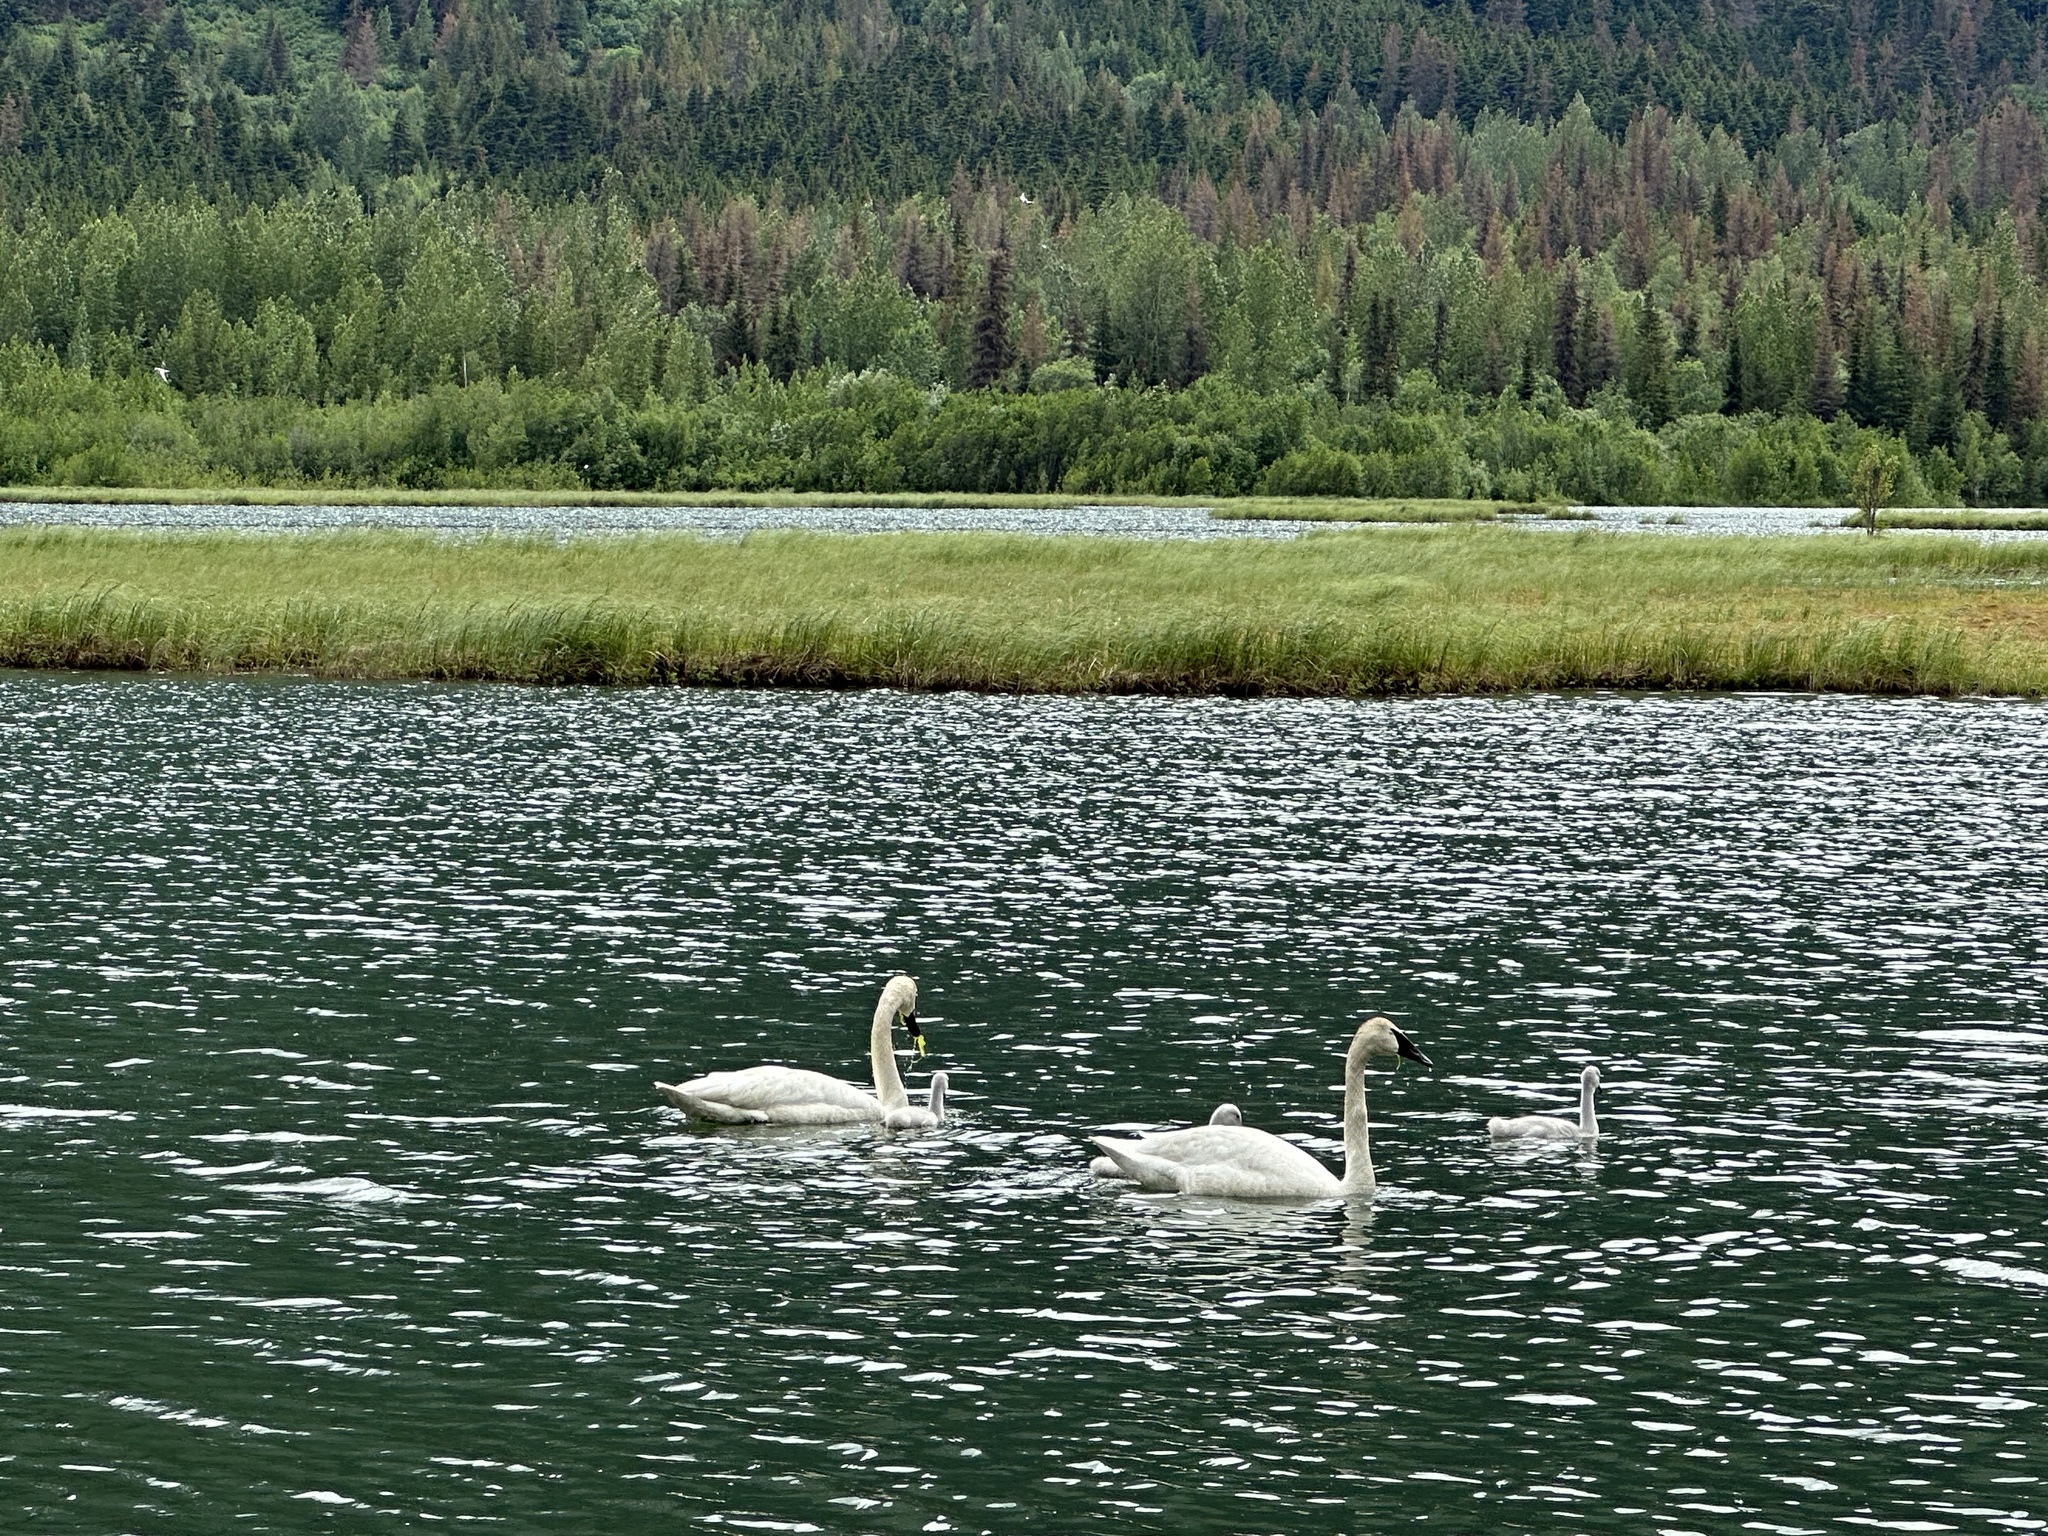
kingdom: Animalia
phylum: Chordata
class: Aves
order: Anseriformes
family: Anatidae
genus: Cygnus
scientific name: Cygnus buccinator
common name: Trumpeter swan
